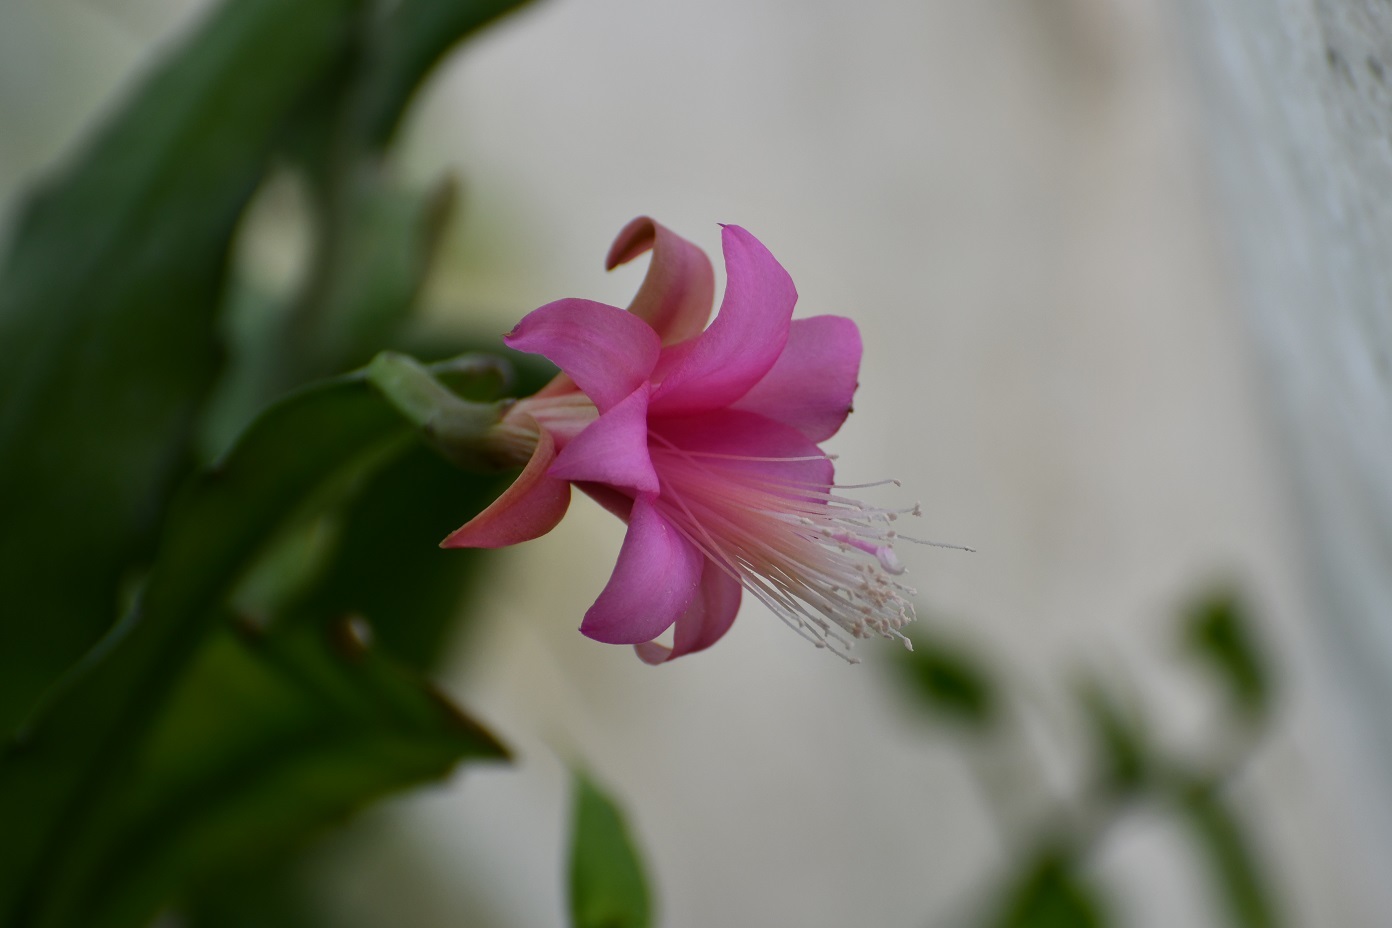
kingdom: Plantae
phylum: Tracheophyta
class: Magnoliopsida
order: Caryophyllales
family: Cactaceae
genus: Disocactus
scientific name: Disocactus nelsonii
